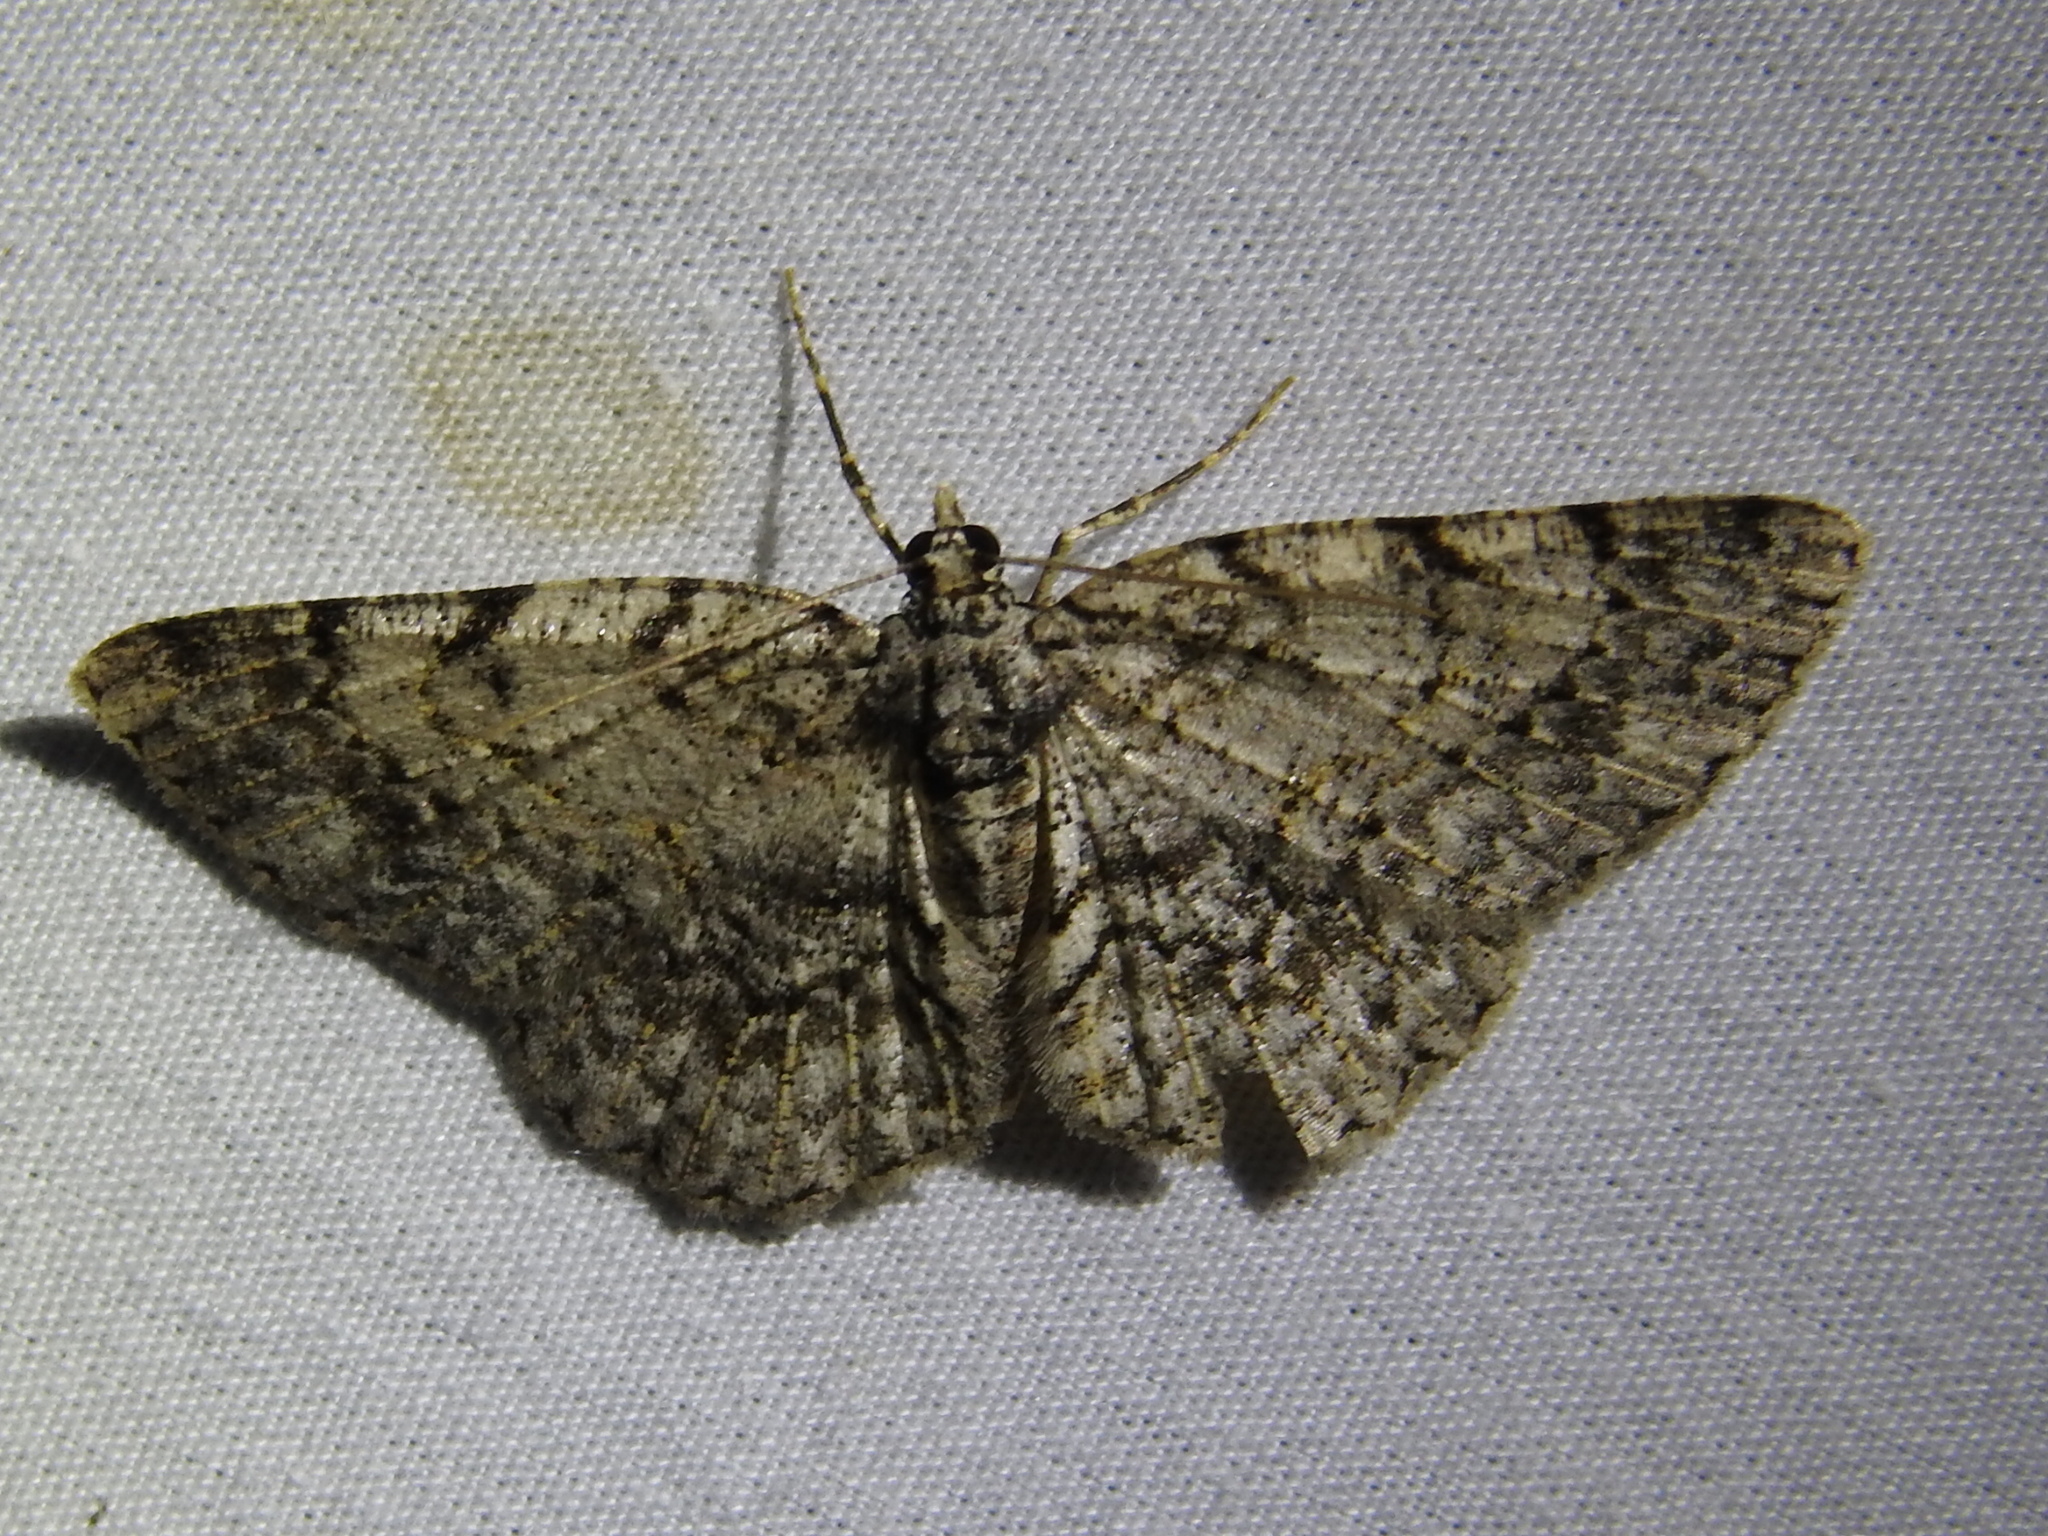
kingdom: Animalia
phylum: Arthropoda
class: Insecta
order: Lepidoptera
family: Geometridae
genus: Protoboarmia
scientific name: Protoboarmia porcelaria
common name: Porcelain gray
